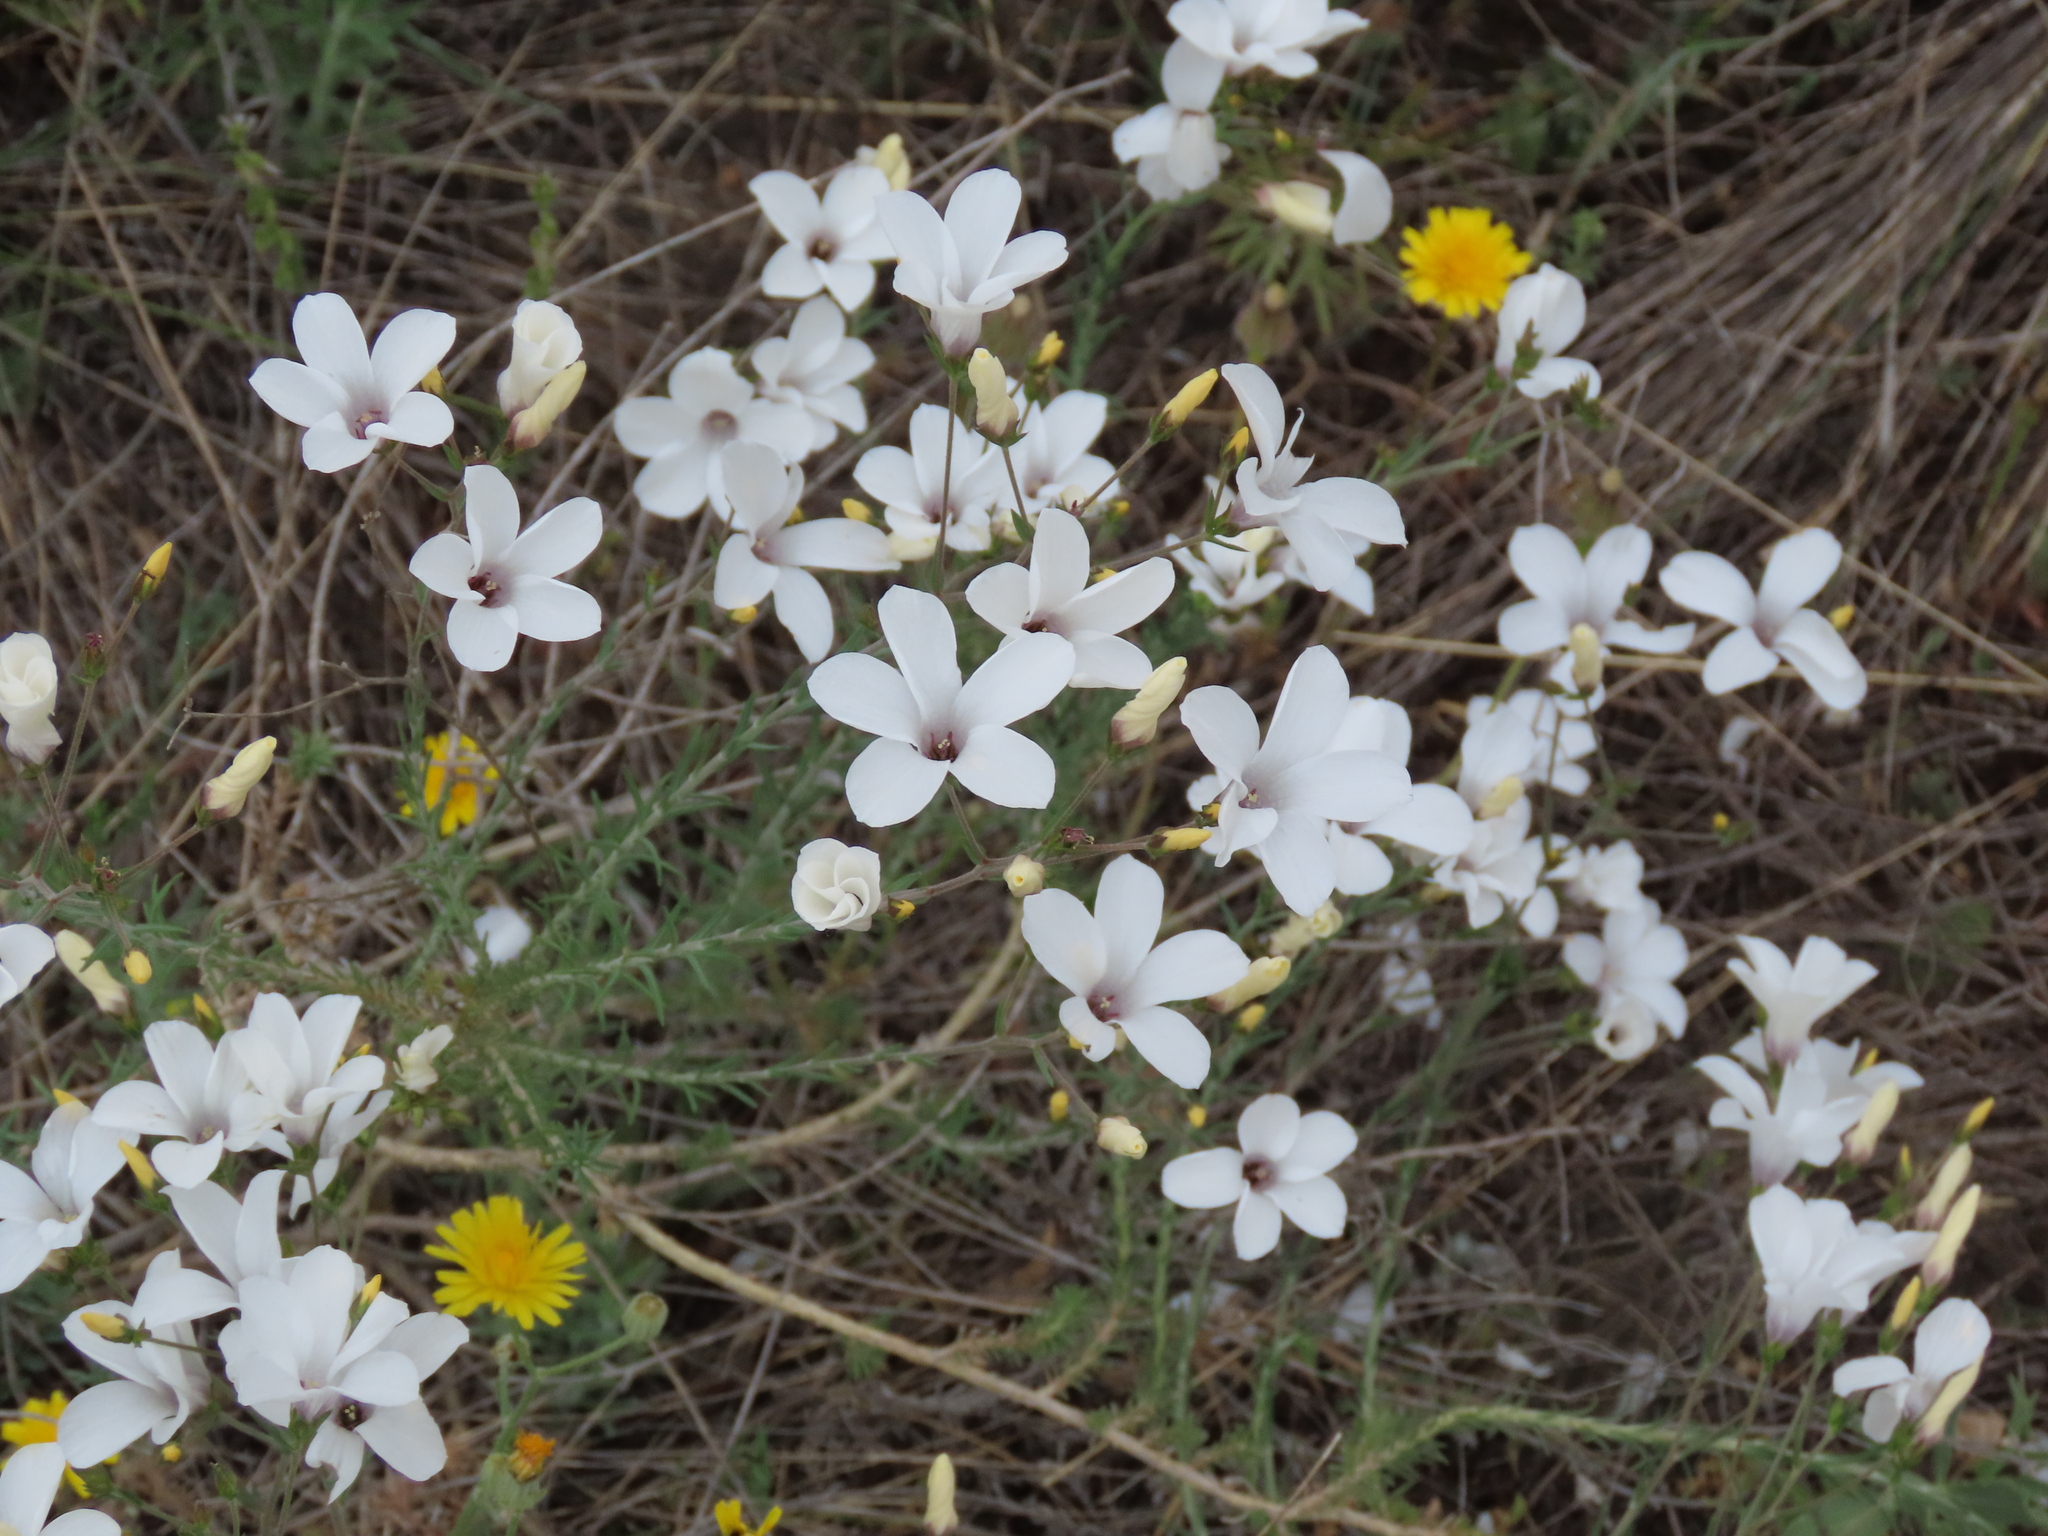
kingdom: Plantae
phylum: Tracheophyta
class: Magnoliopsida
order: Malpighiales
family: Linaceae
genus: Linum
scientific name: Linum suffruticosum
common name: White flax
